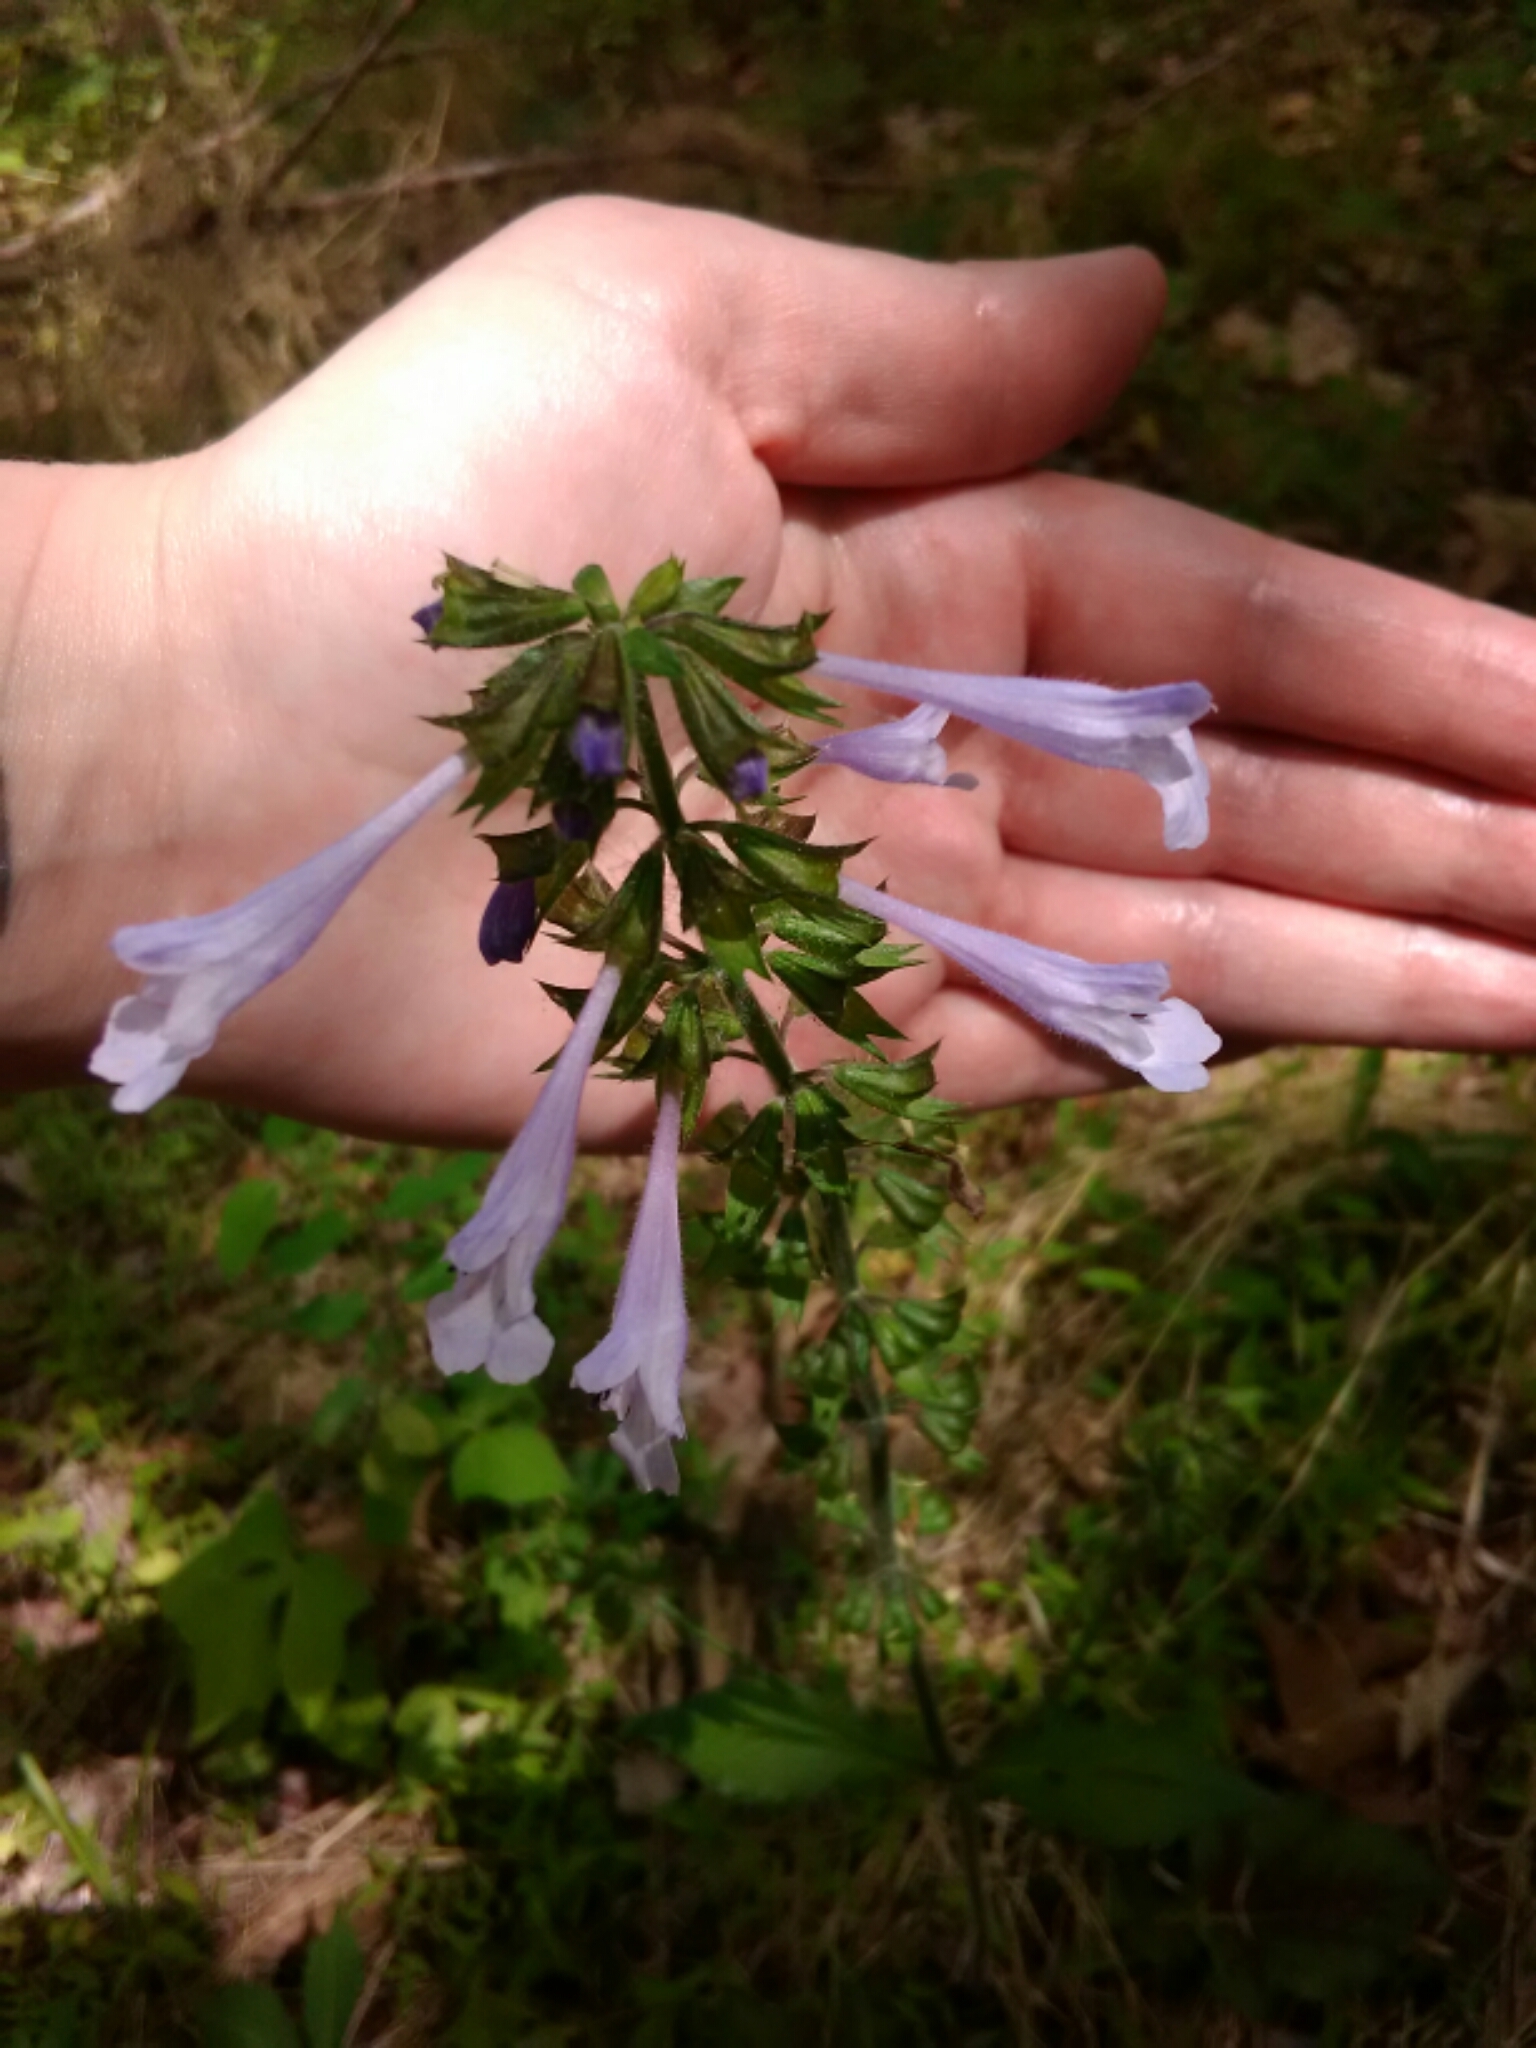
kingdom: Plantae
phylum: Tracheophyta
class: Magnoliopsida
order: Lamiales
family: Lamiaceae
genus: Salvia
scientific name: Salvia lyrata
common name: Cancerweed
